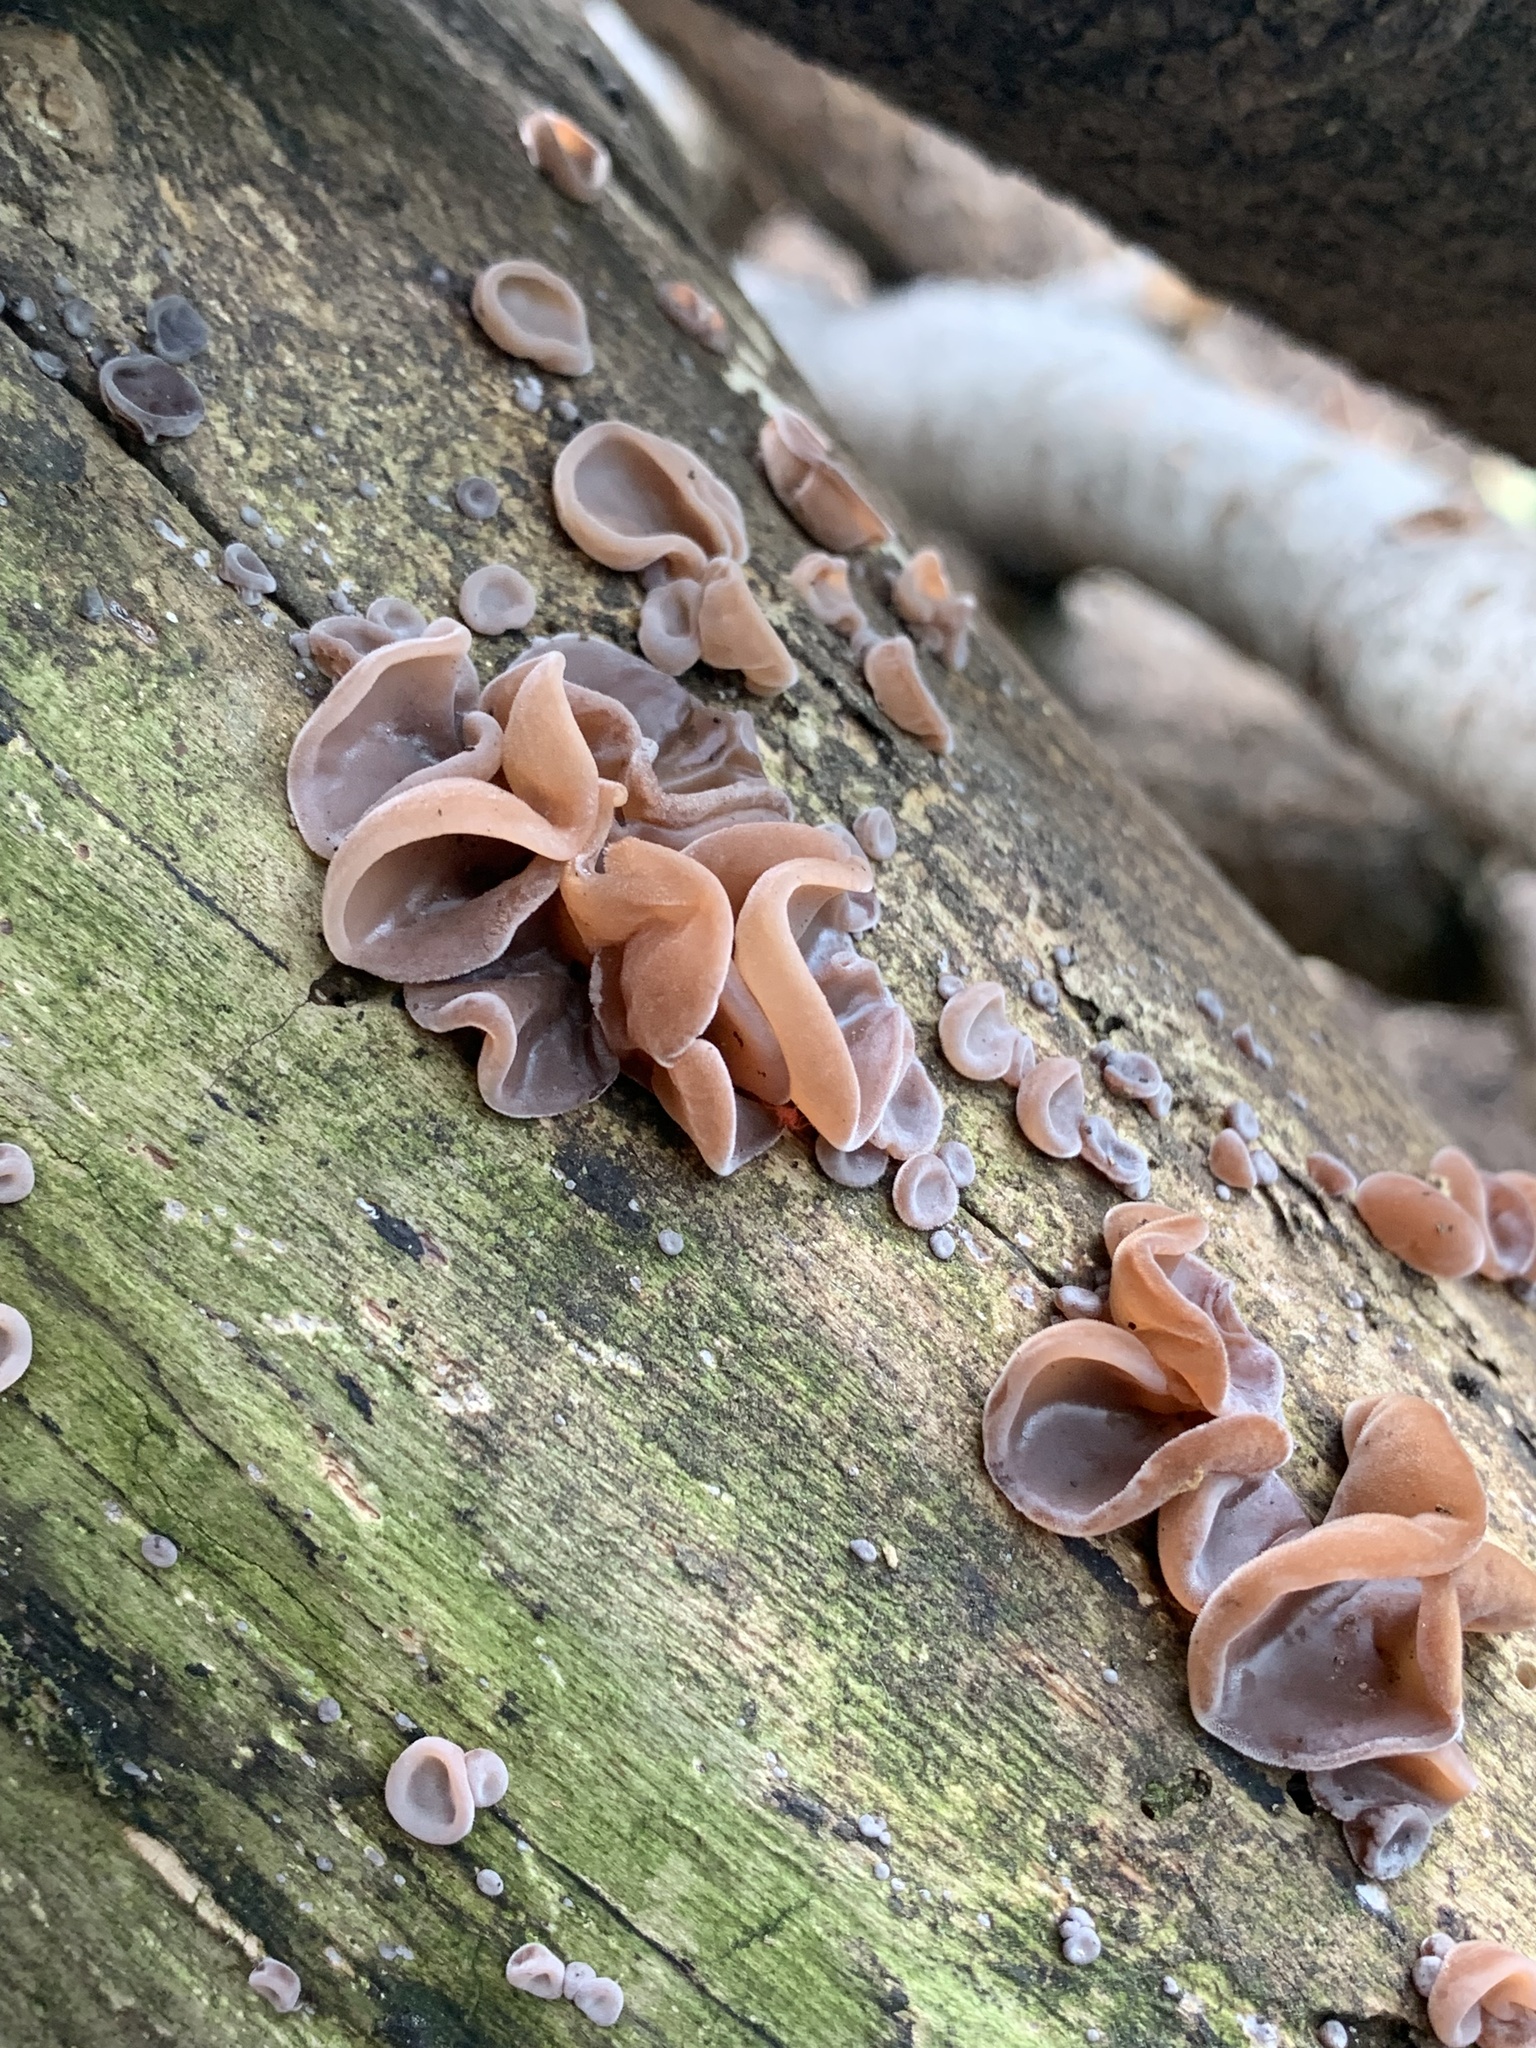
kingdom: Fungi
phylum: Basidiomycota
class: Agaricomycetes
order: Auriculariales
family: Auriculariaceae
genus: Auricularia
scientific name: Auricularia auricula-judae
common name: Jelly ear
